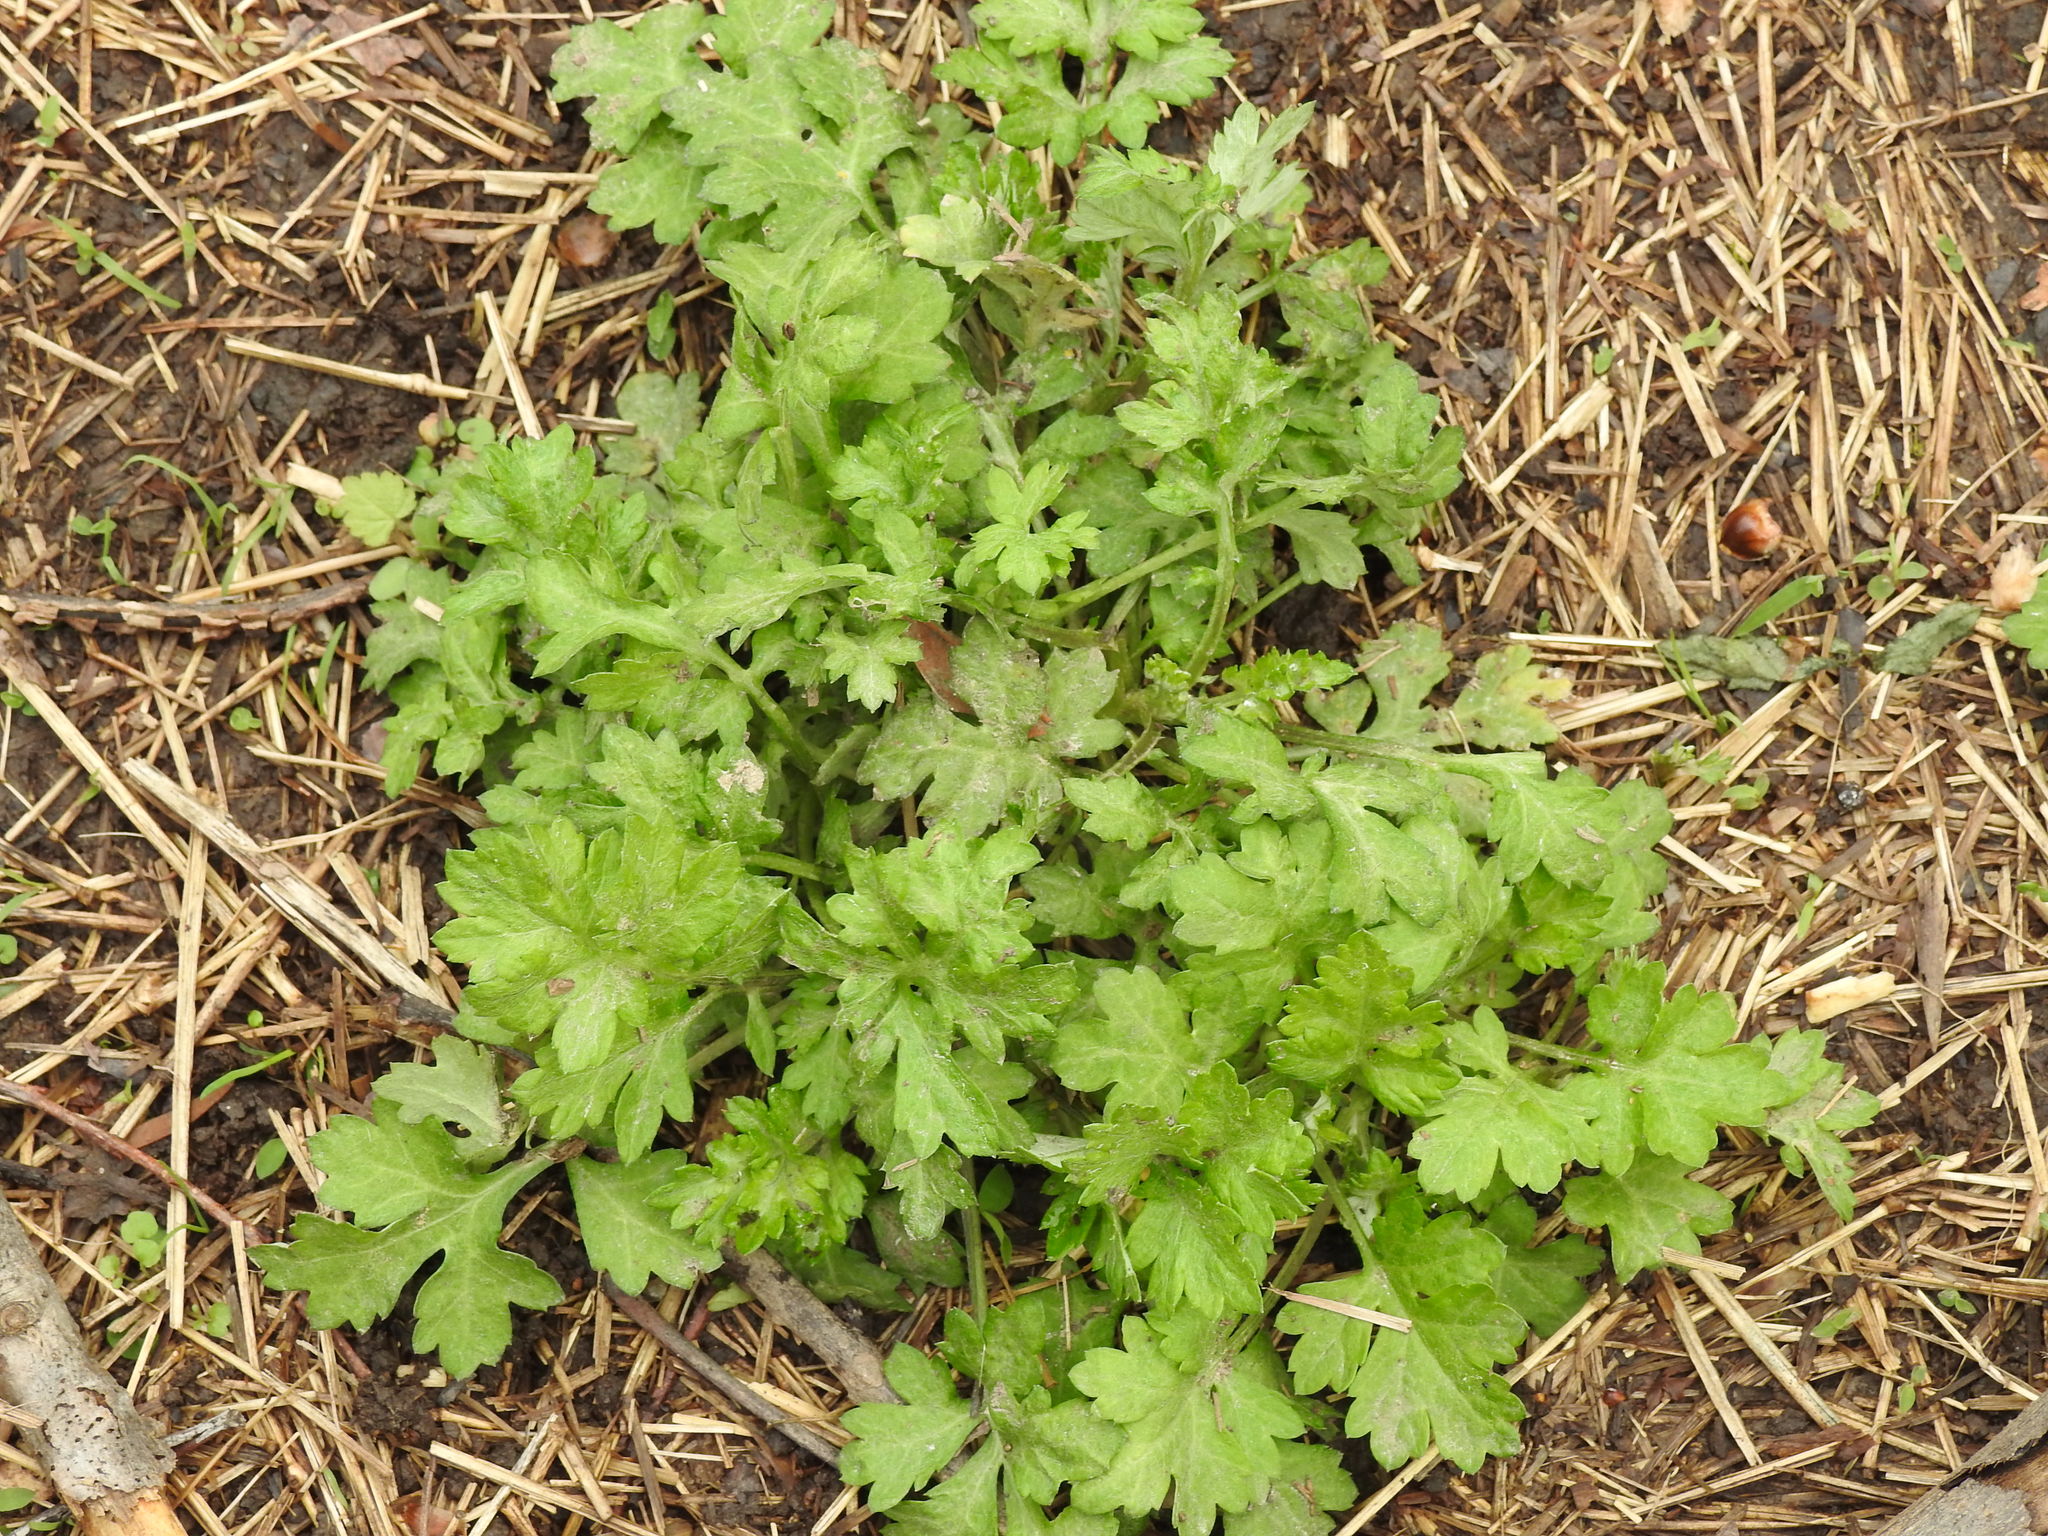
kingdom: Plantae
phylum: Tracheophyta
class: Magnoliopsida
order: Asterales
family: Asteraceae
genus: Artemisia
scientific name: Artemisia vulgaris
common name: Mugwort
